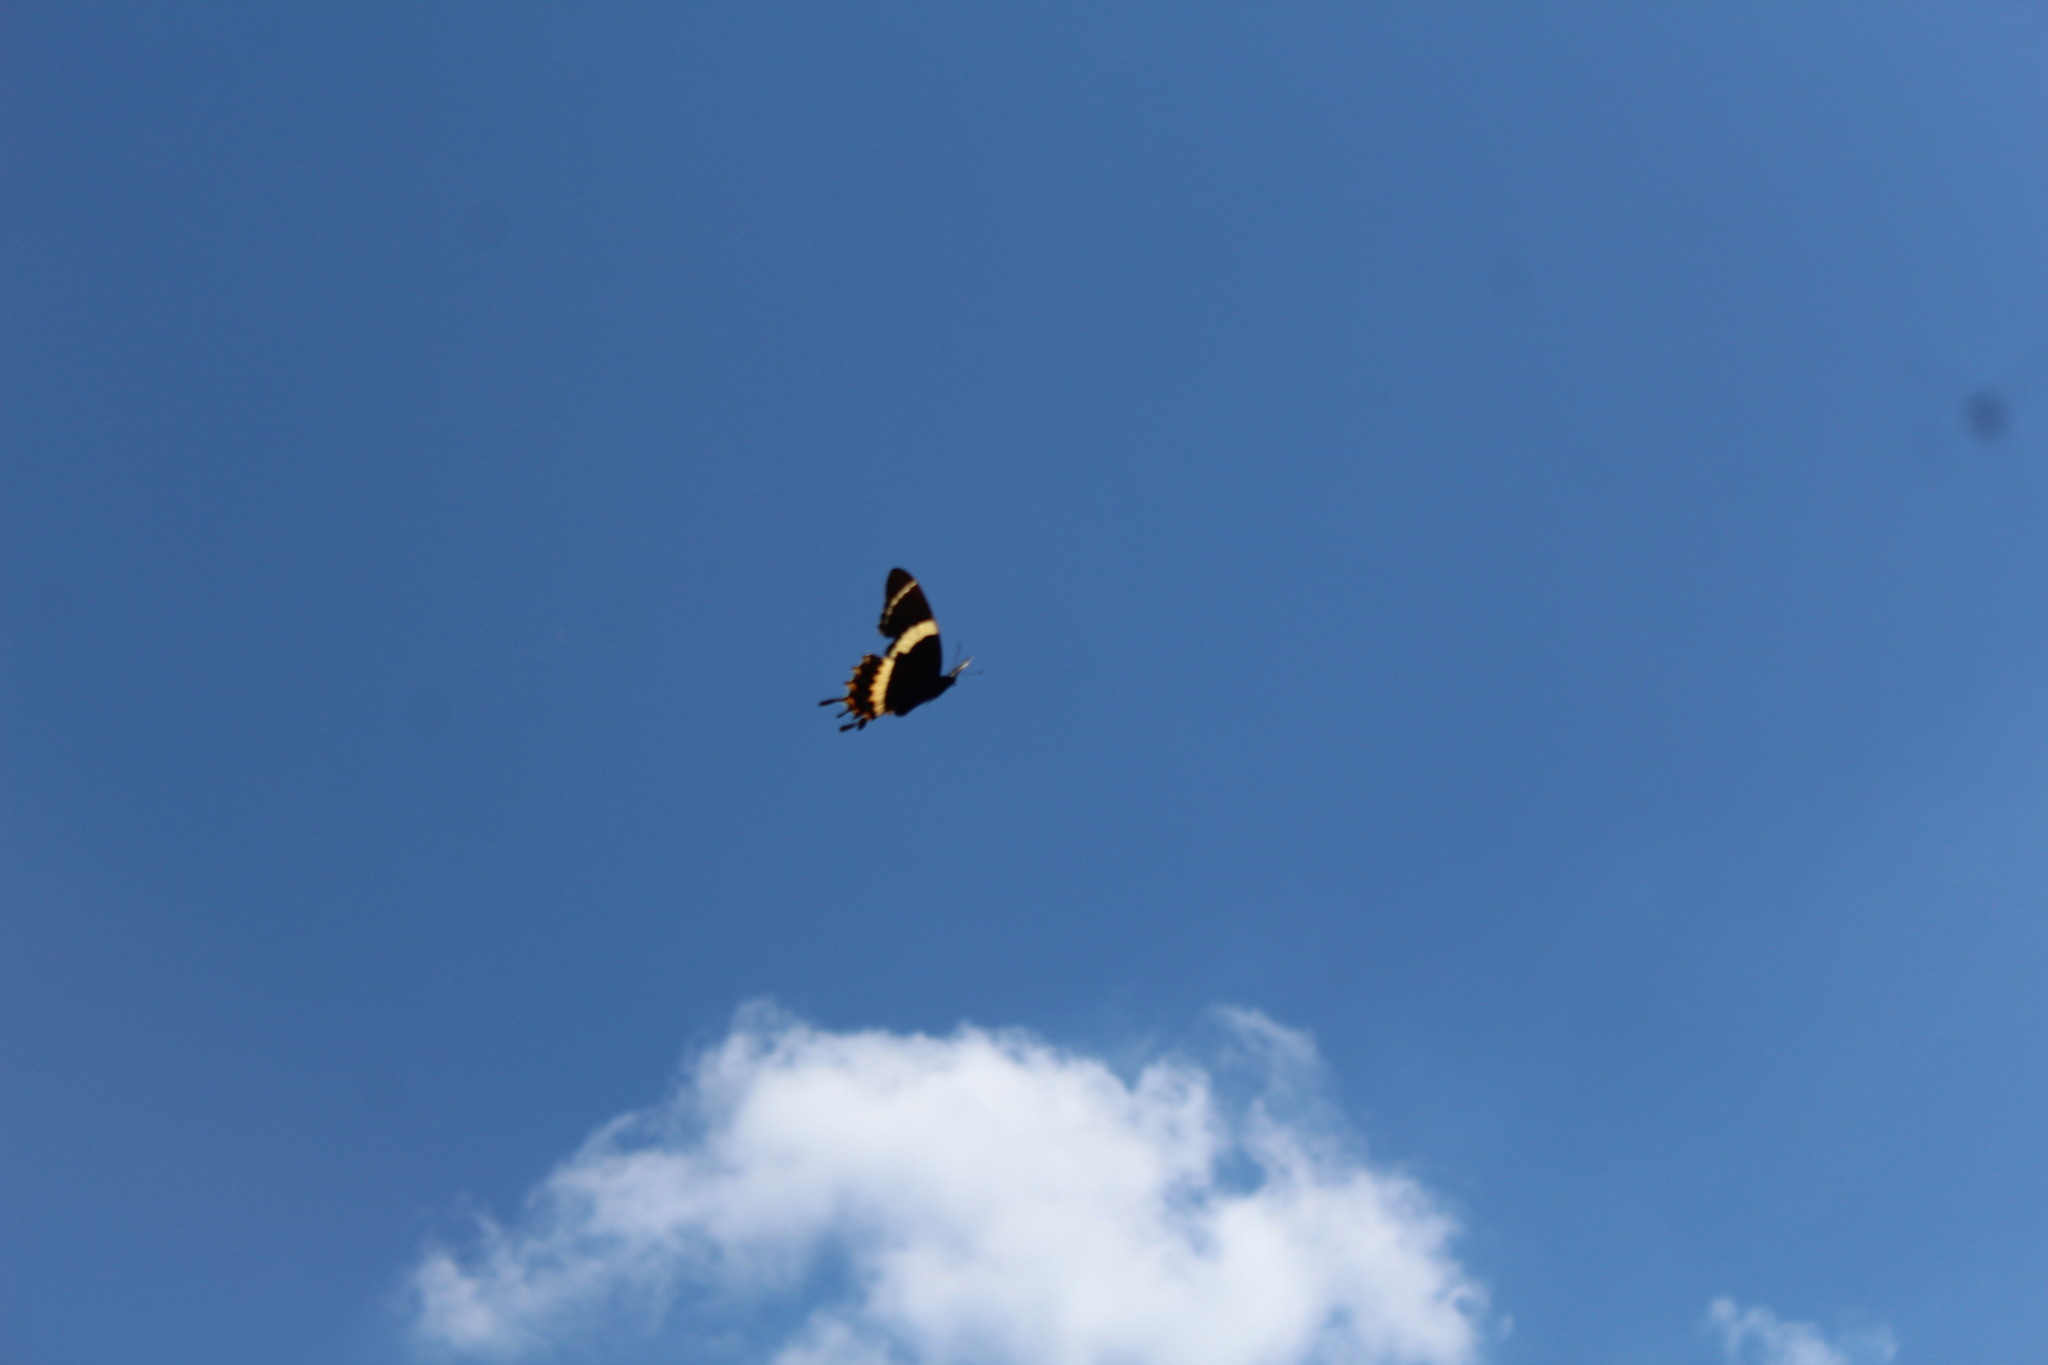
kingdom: Animalia
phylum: Arthropoda
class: Insecta
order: Lepidoptera
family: Papilionidae
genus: Papilio
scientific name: Papilio garamas
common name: Magnificent swallowtail
